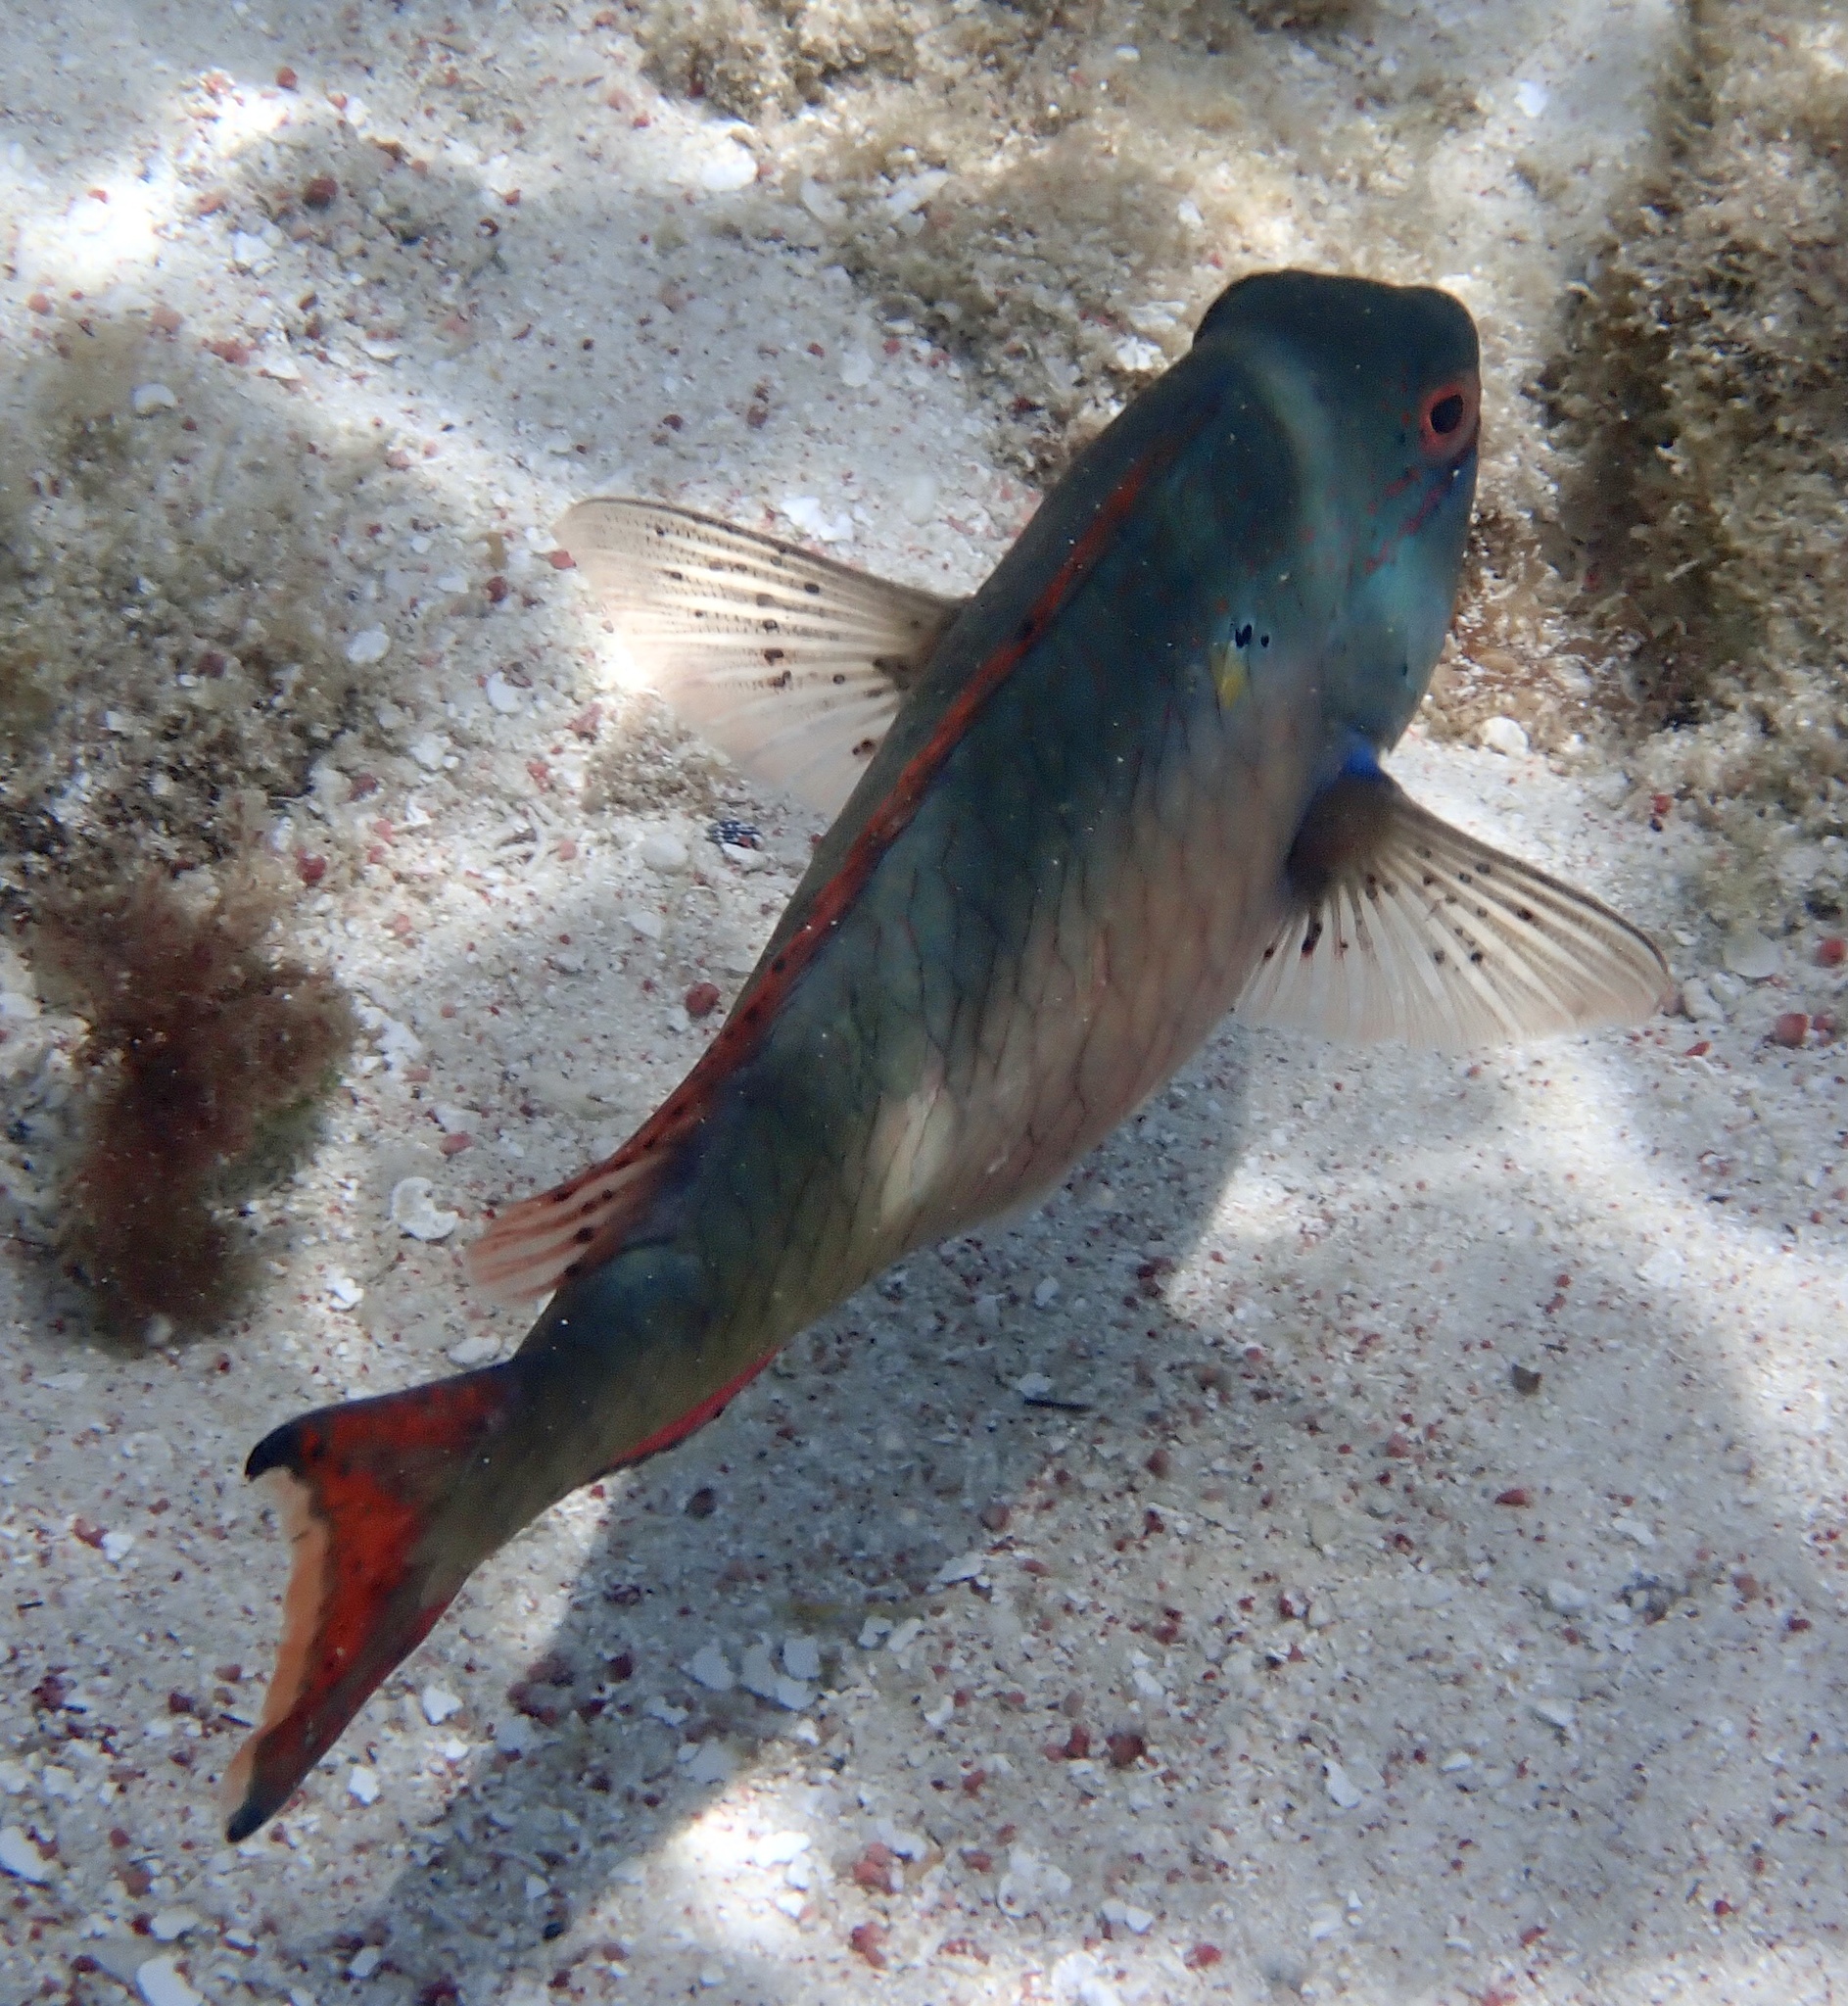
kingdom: Animalia
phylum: Chordata
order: Perciformes
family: Scaridae
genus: Sparisoma
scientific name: Sparisoma aurofrenatum
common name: Redband parrotfish
